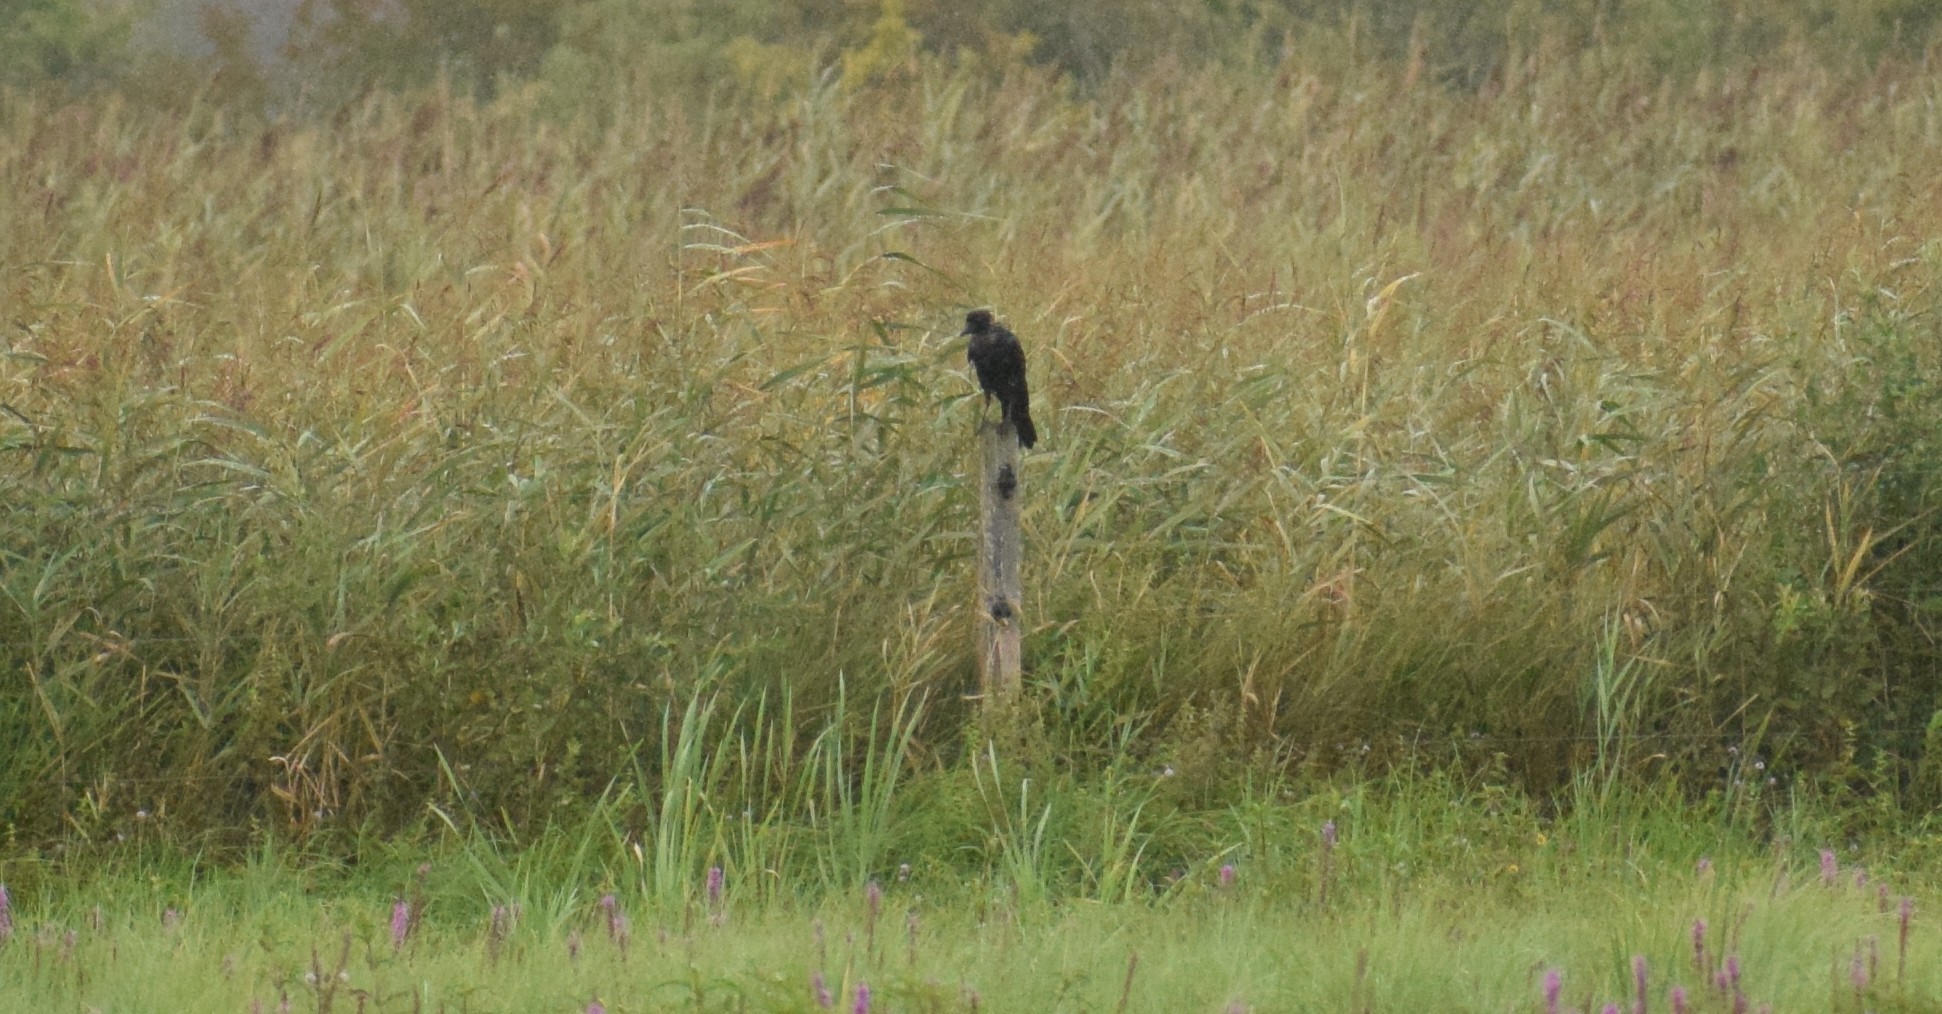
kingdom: Animalia
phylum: Chordata
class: Aves
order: Passeriformes
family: Corvidae
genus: Corvus
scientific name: Corvus corone
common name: Carrion crow
